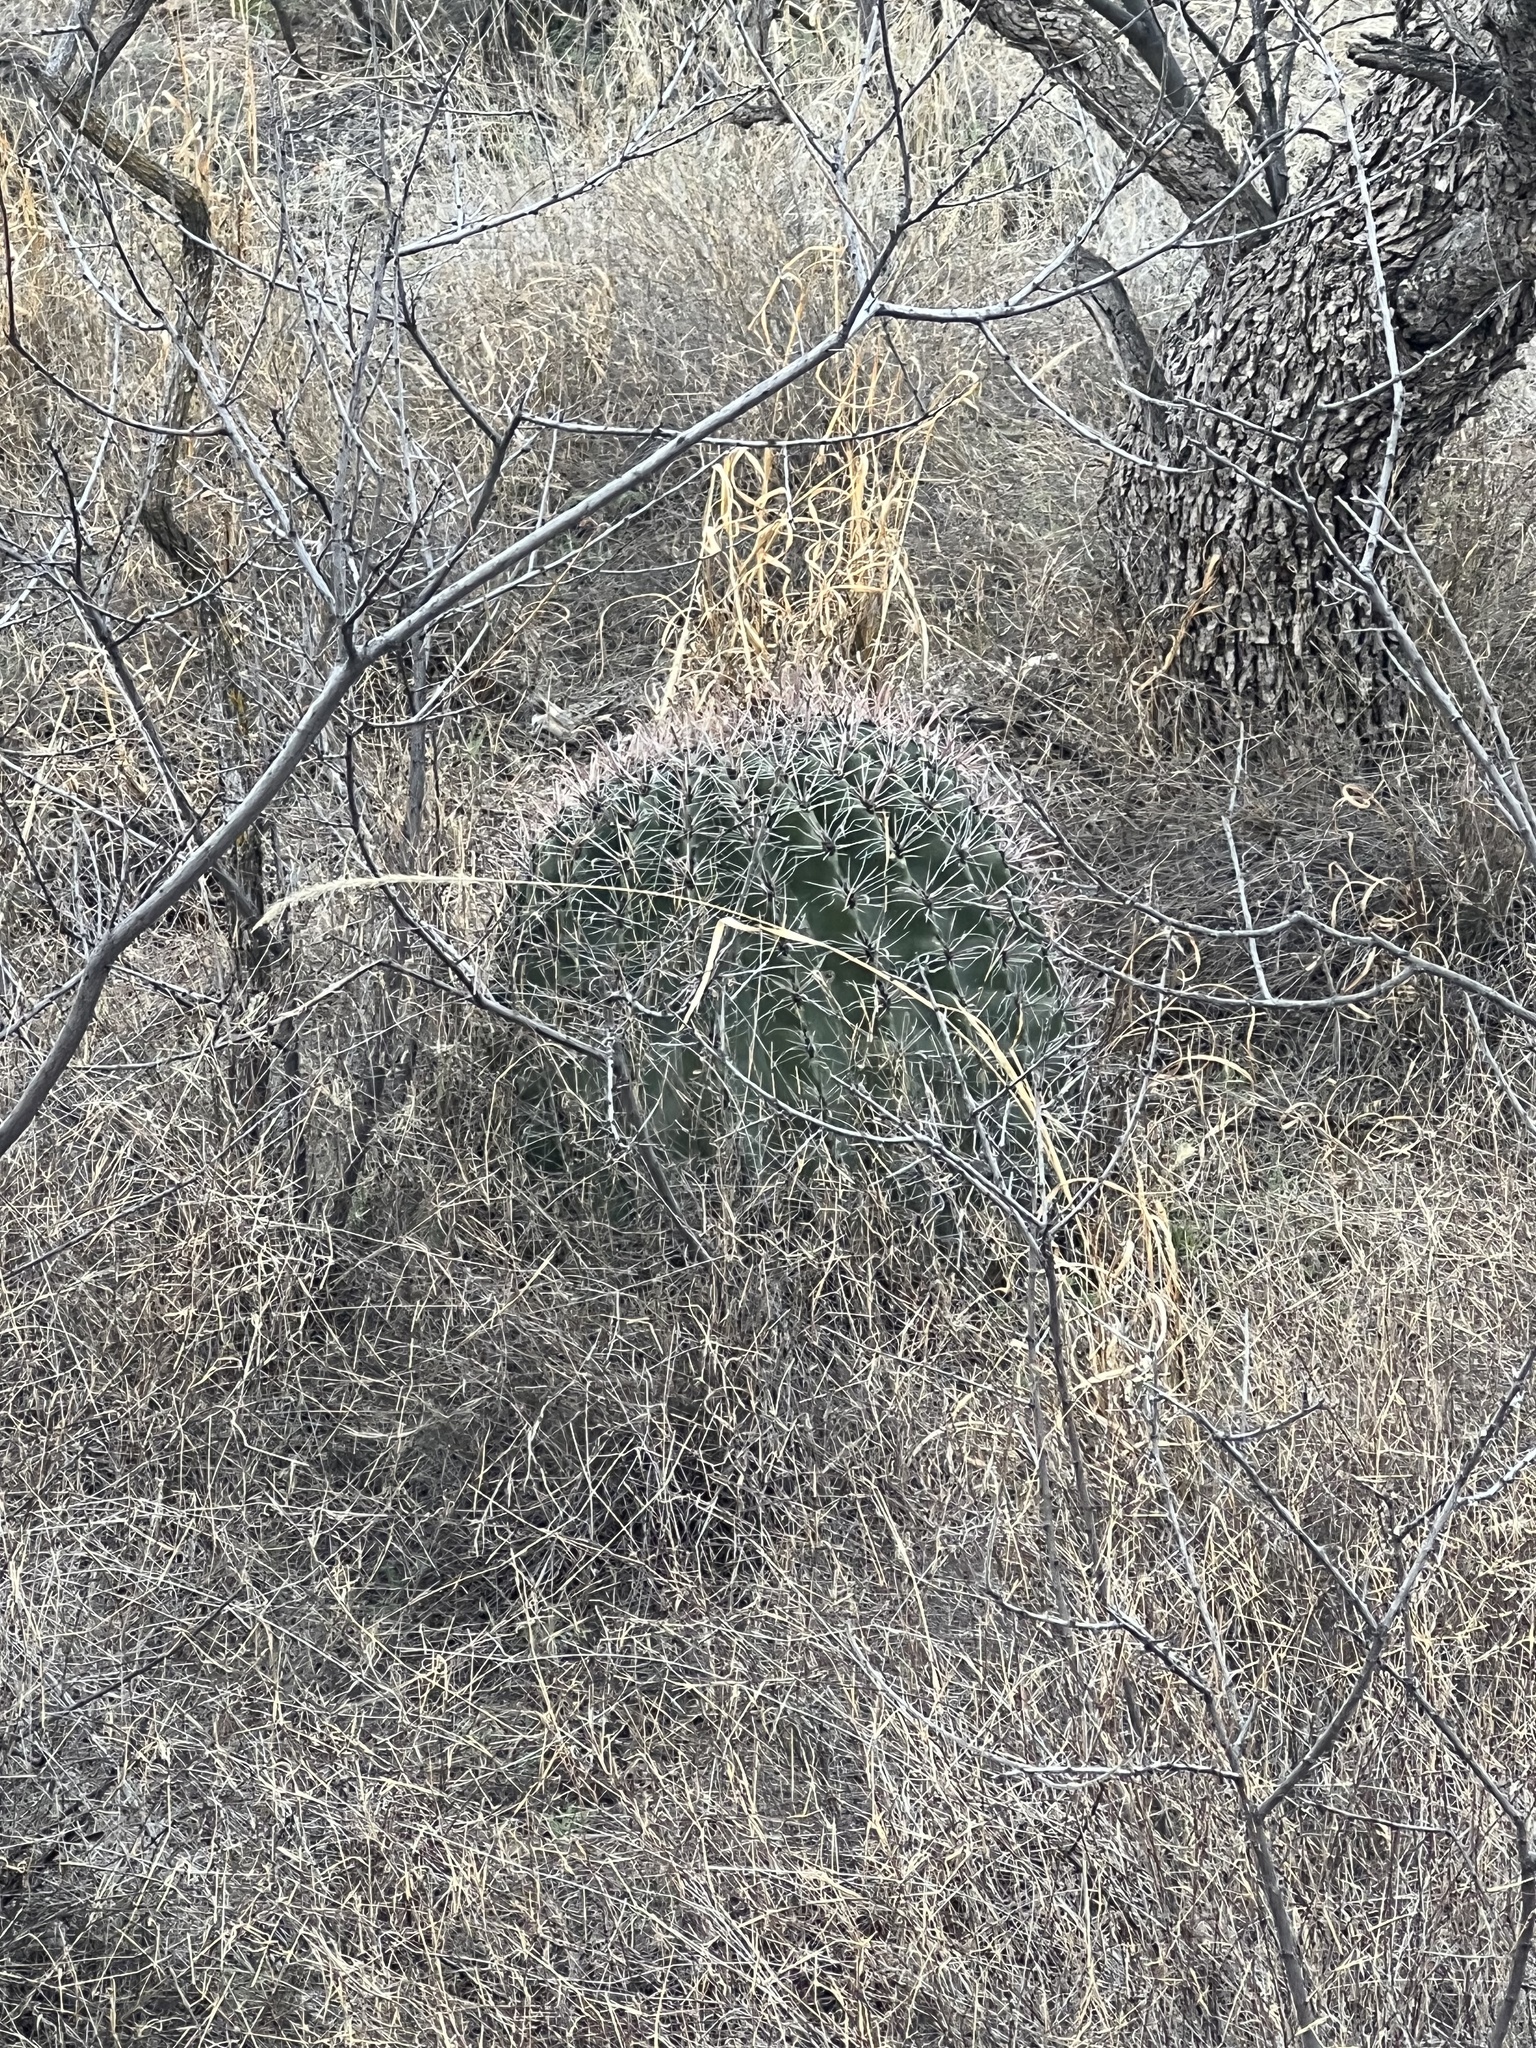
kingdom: Plantae
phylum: Tracheophyta
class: Magnoliopsida
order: Caryophyllales
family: Cactaceae
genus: Ferocactus
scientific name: Ferocactus wislizeni
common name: Candy barrel cactus
